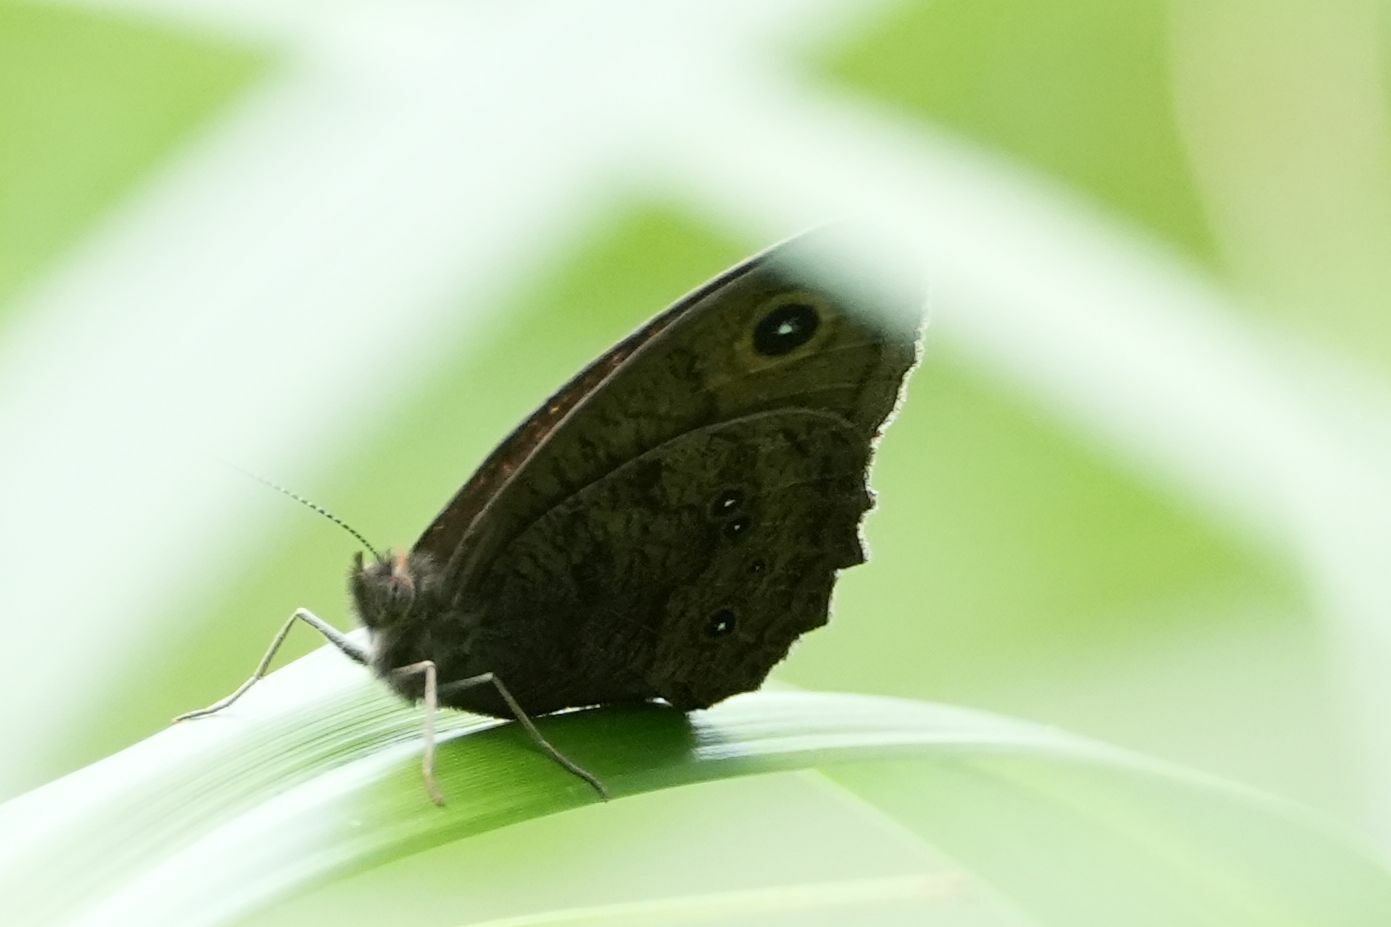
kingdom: Animalia
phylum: Arthropoda
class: Insecta
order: Lepidoptera
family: Nymphalidae
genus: Cercyonis
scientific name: Cercyonis pegala
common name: Common wood-nymph
